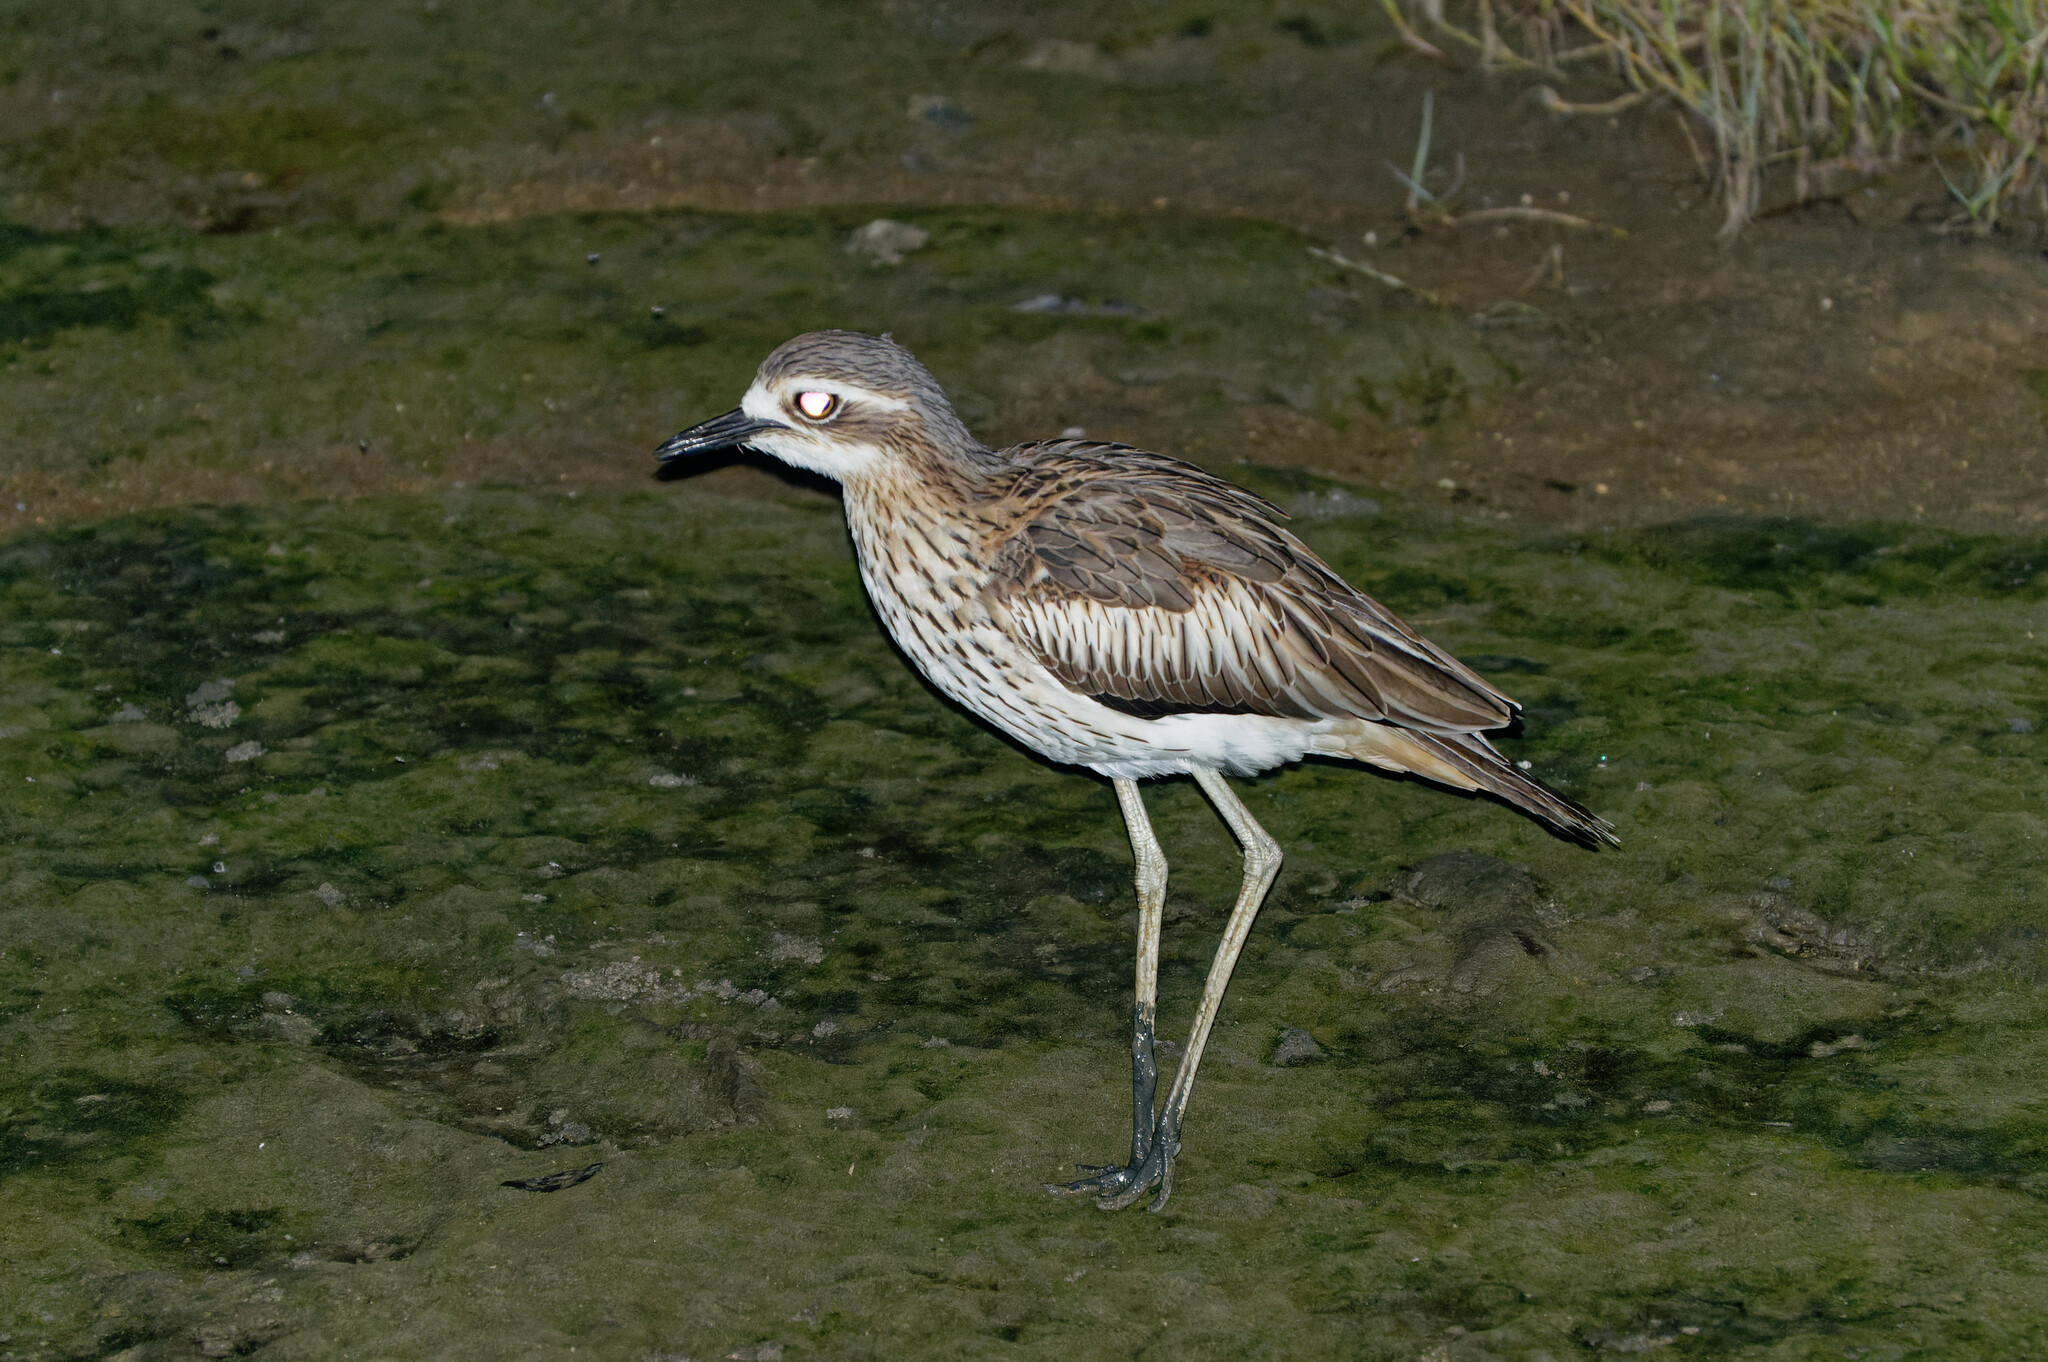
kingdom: Animalia
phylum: Chordata
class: Aves
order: Charadriiformes
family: Burhinidae
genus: Burhinus
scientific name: Burhinus grallarius
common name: Bush stone-curlew
